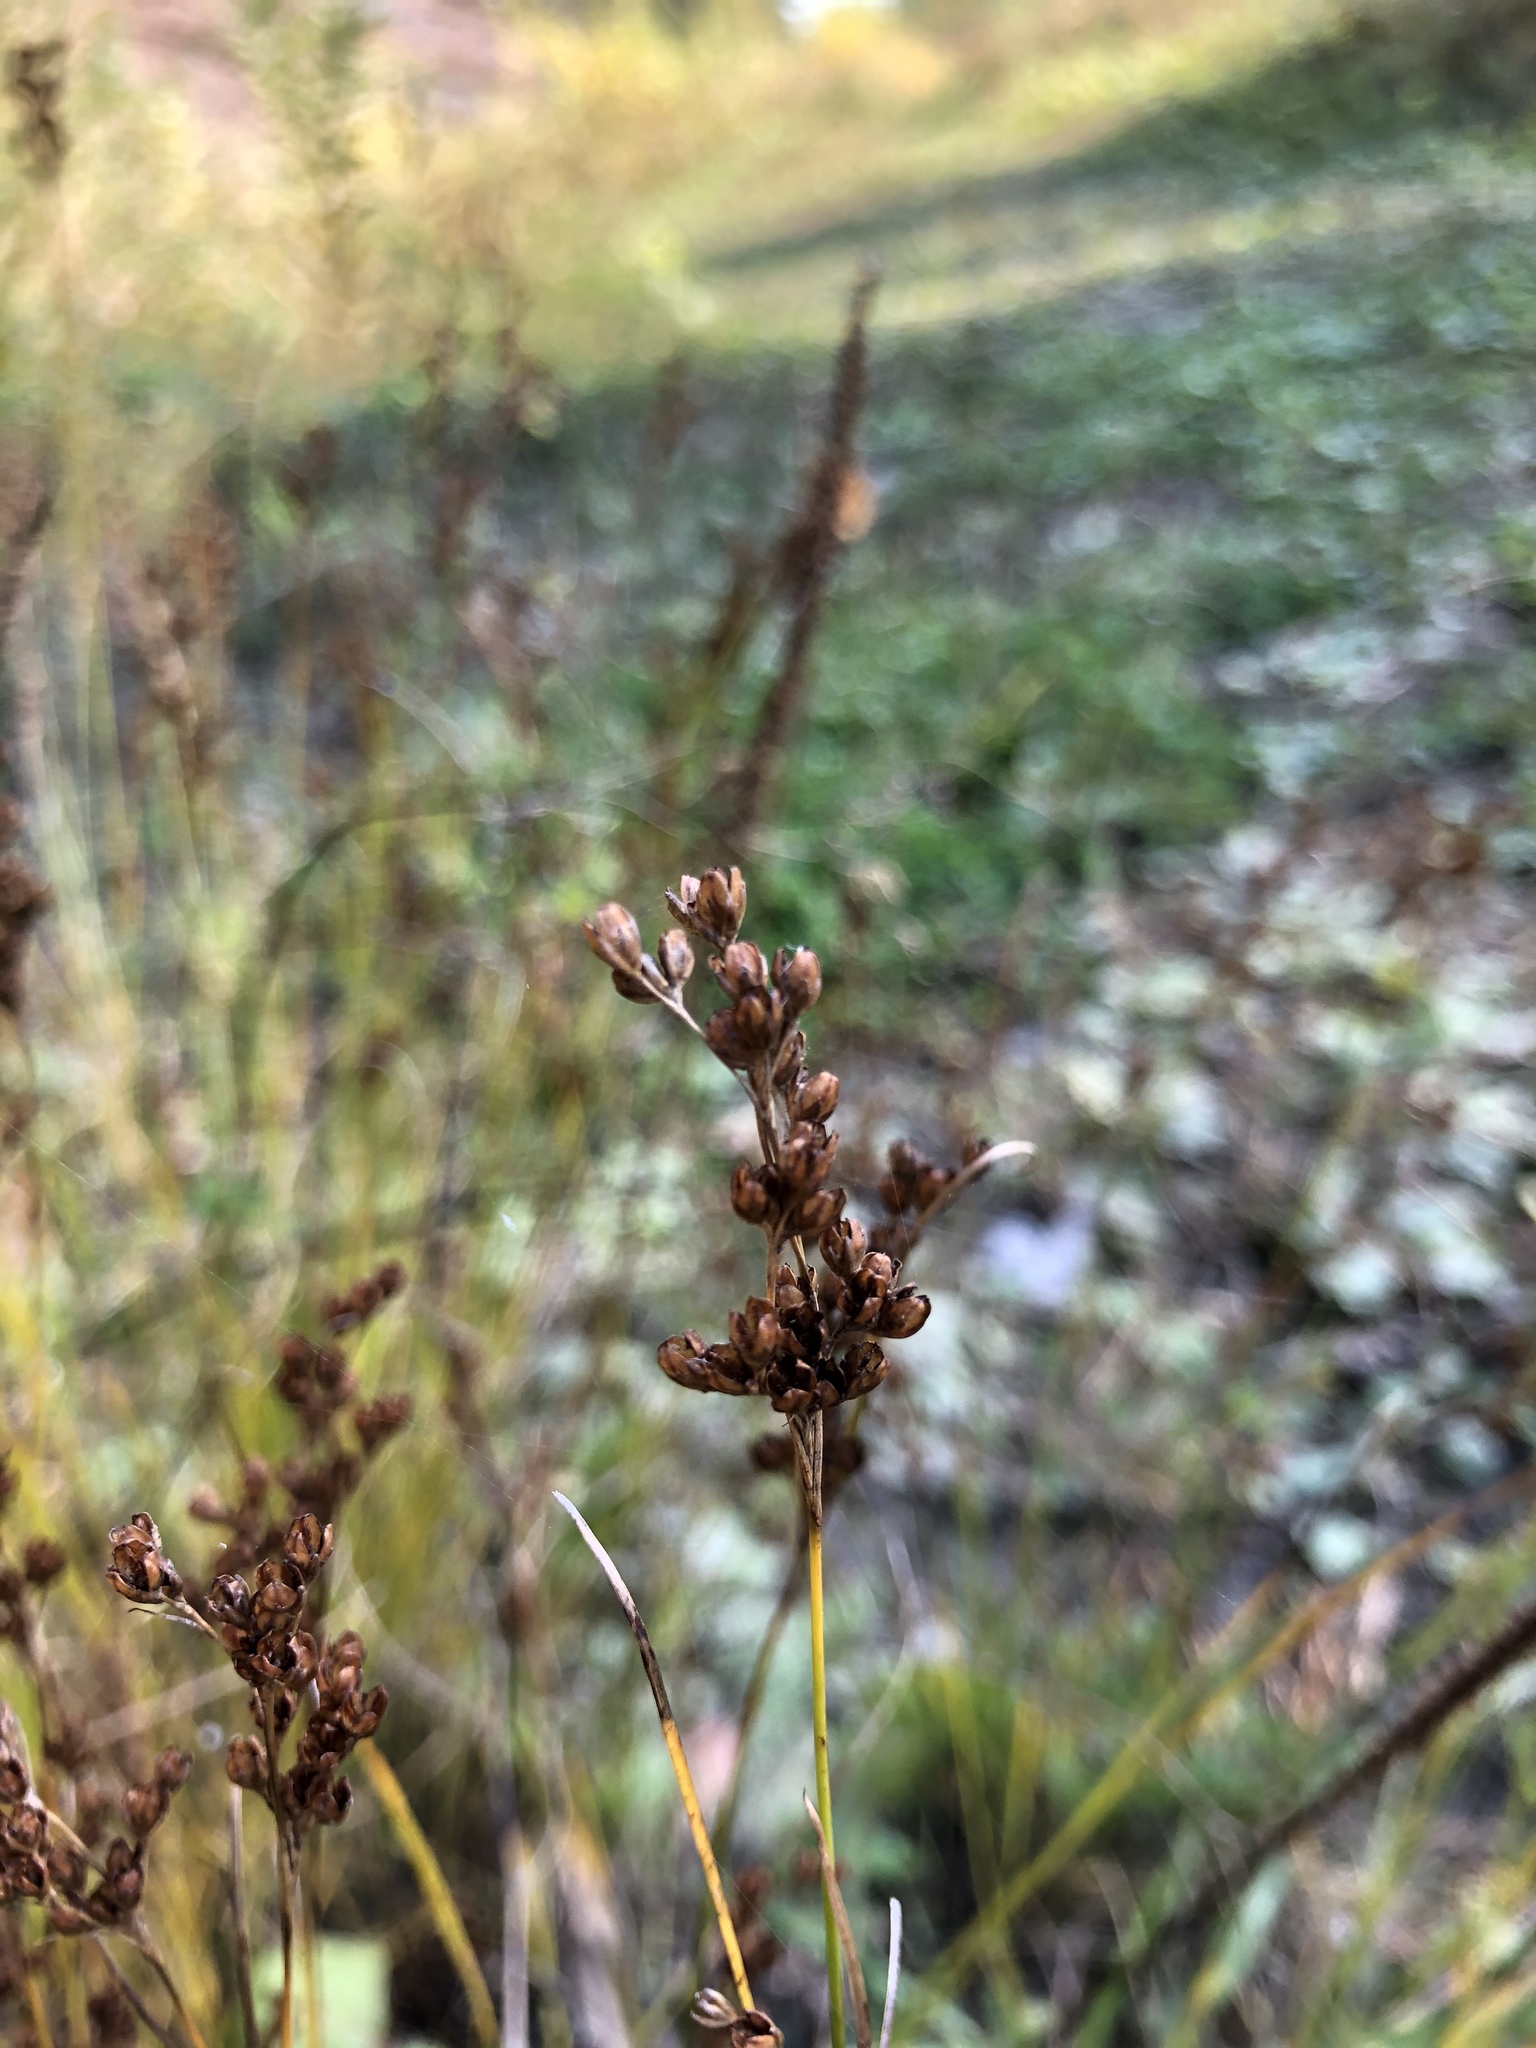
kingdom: Plantae
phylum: Tracheophyta
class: Liliopsida
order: Poales
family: Juncaceae
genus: Juncus
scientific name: Juncus compressus
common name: Round-fruited rush
